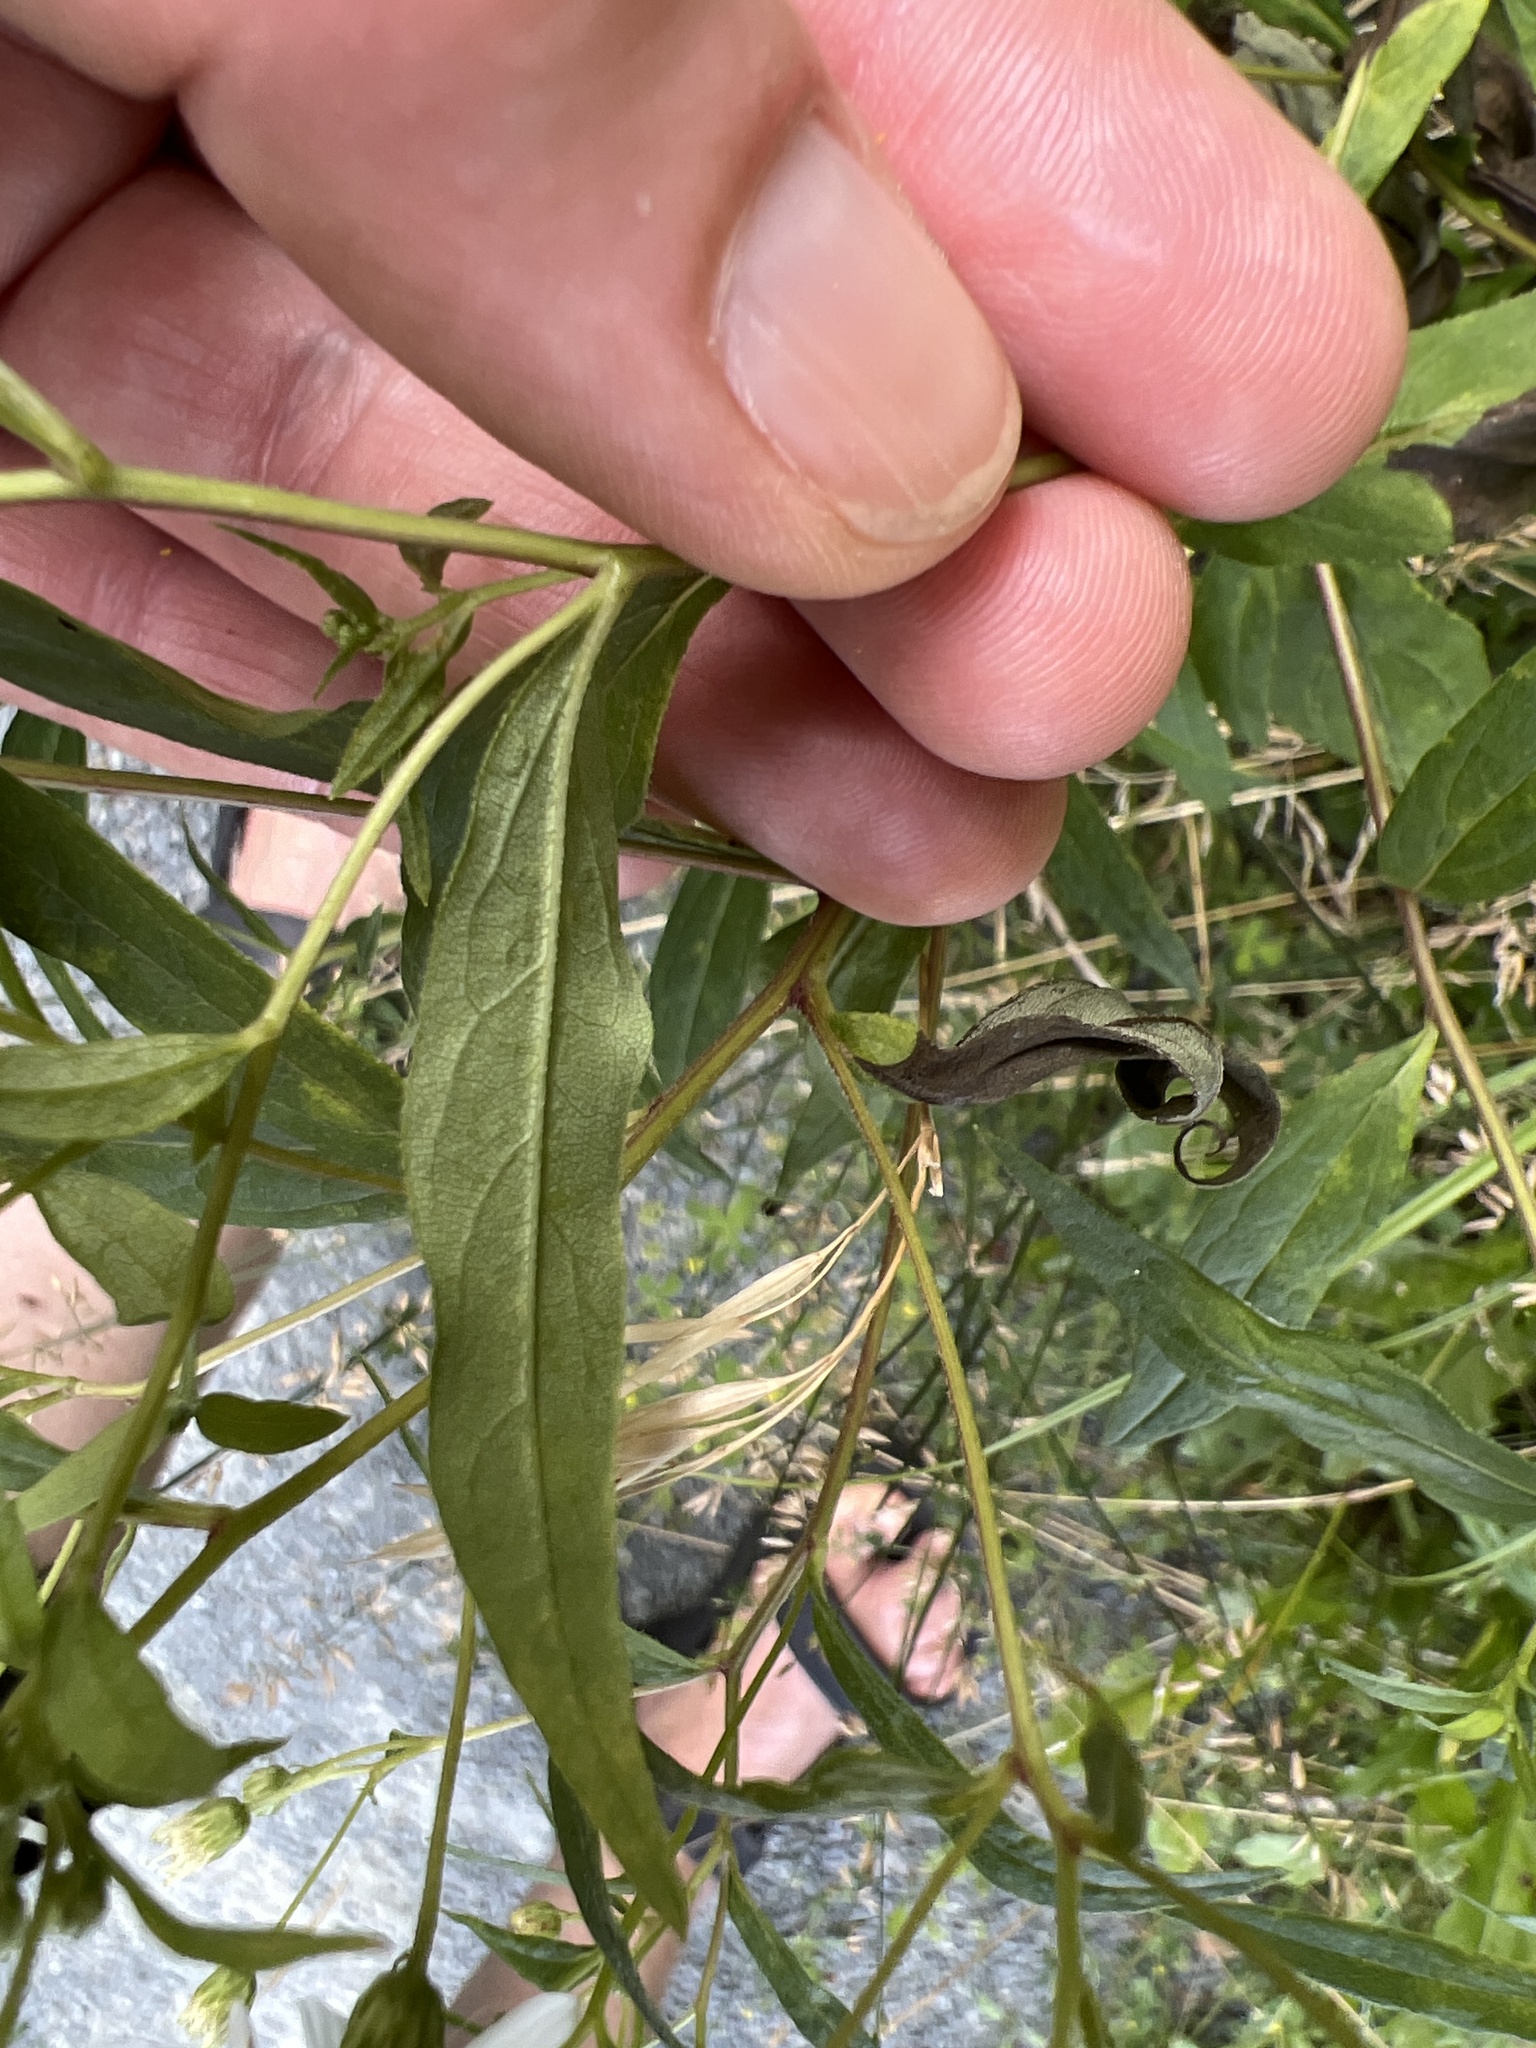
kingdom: Plantae
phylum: Tracheophyta
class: Magnoliopsida
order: Asterales
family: Asteraceae
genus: Doellingeria
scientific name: Doellingeria umbellata
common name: Flat-top white aster
